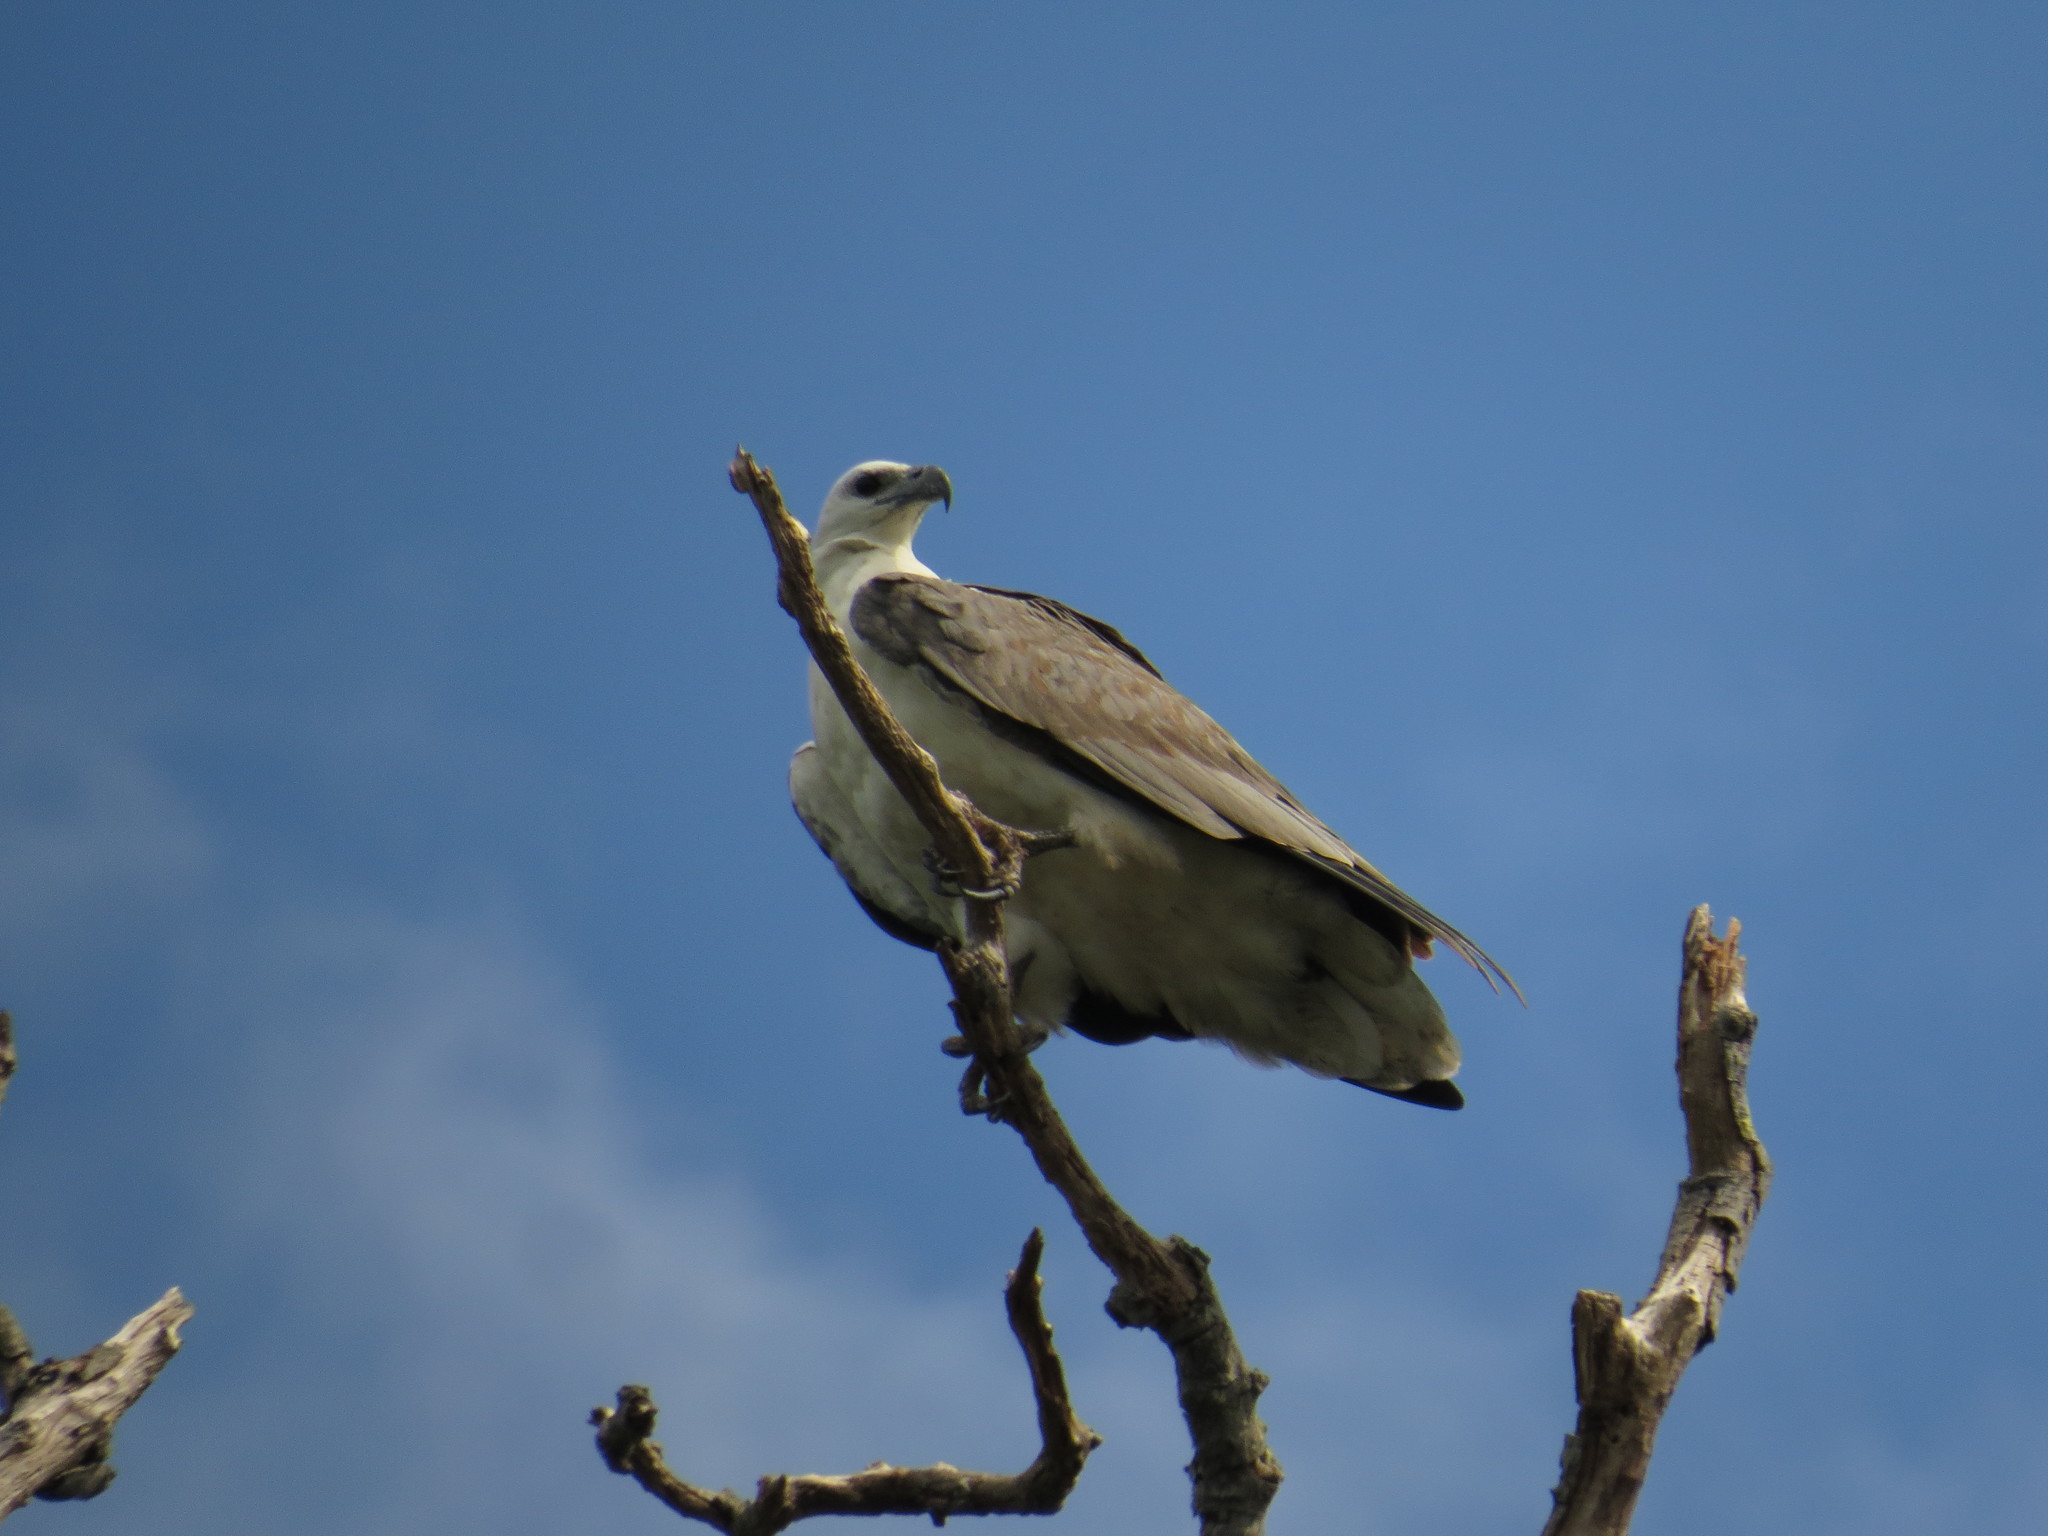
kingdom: Animalia
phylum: Chordata
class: Aves
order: Accipitriformes
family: Accipitridae
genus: Haliaeetus
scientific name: Haliaeetus leucogaster
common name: White-bellied sea eagle
